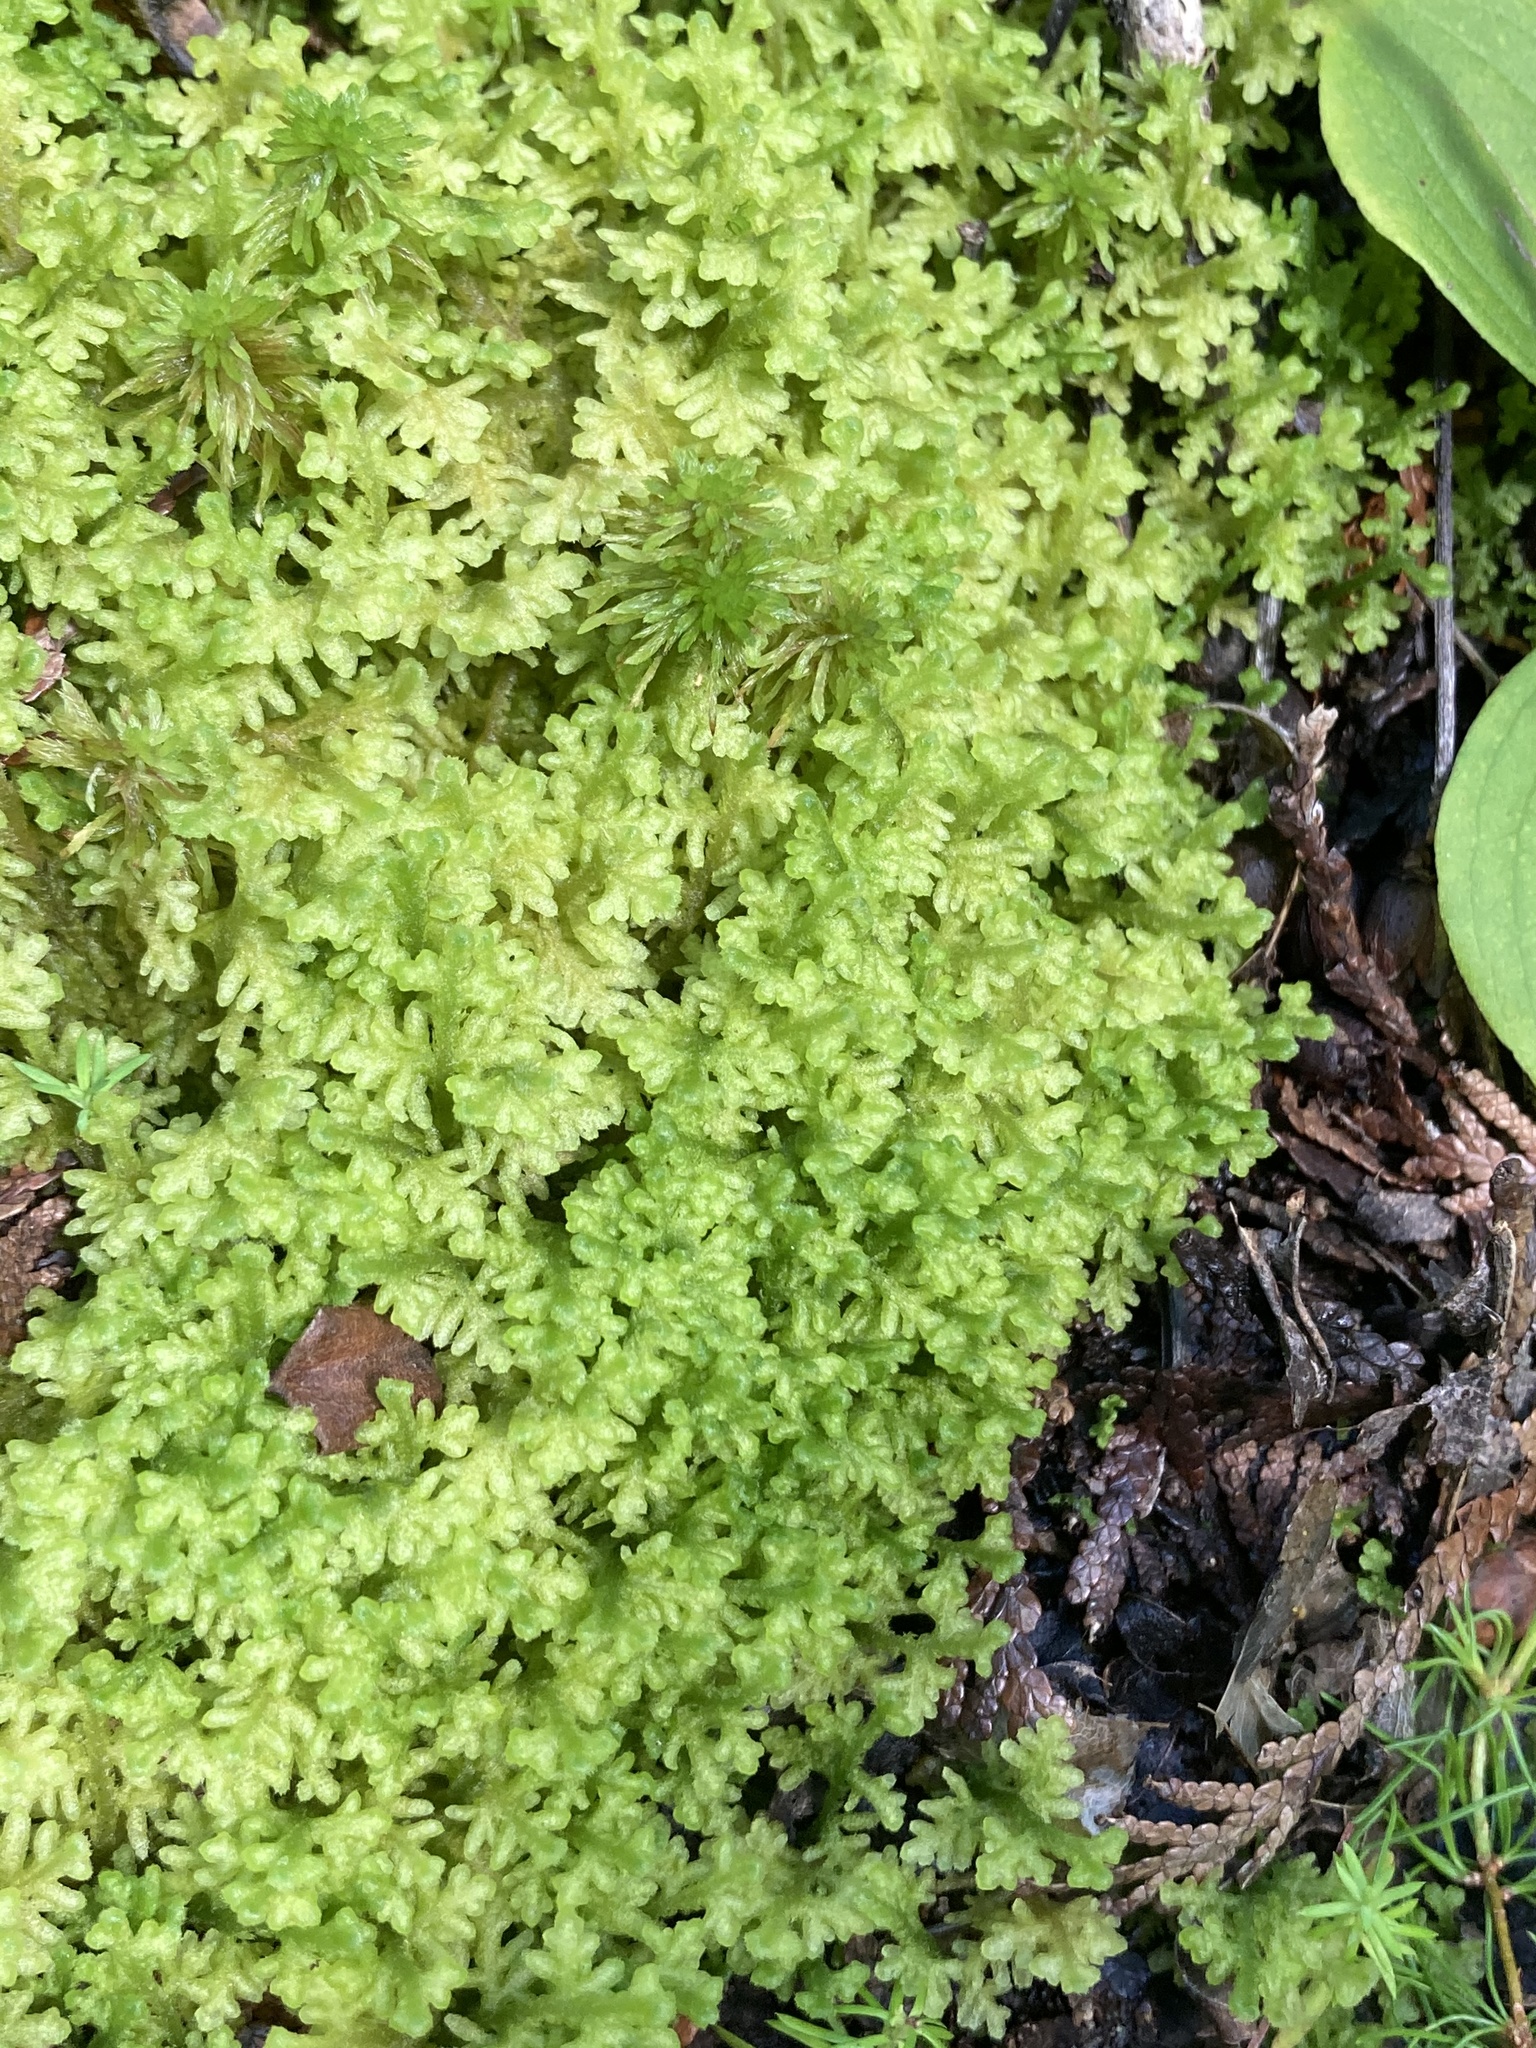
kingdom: Plantae
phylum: Marchantiophyta
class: Jungermanniopsida
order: Jungermanniales
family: Trichocoleaceae
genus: Trichocolea
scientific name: Trichocolea tomentella
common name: Woolly liverwort
